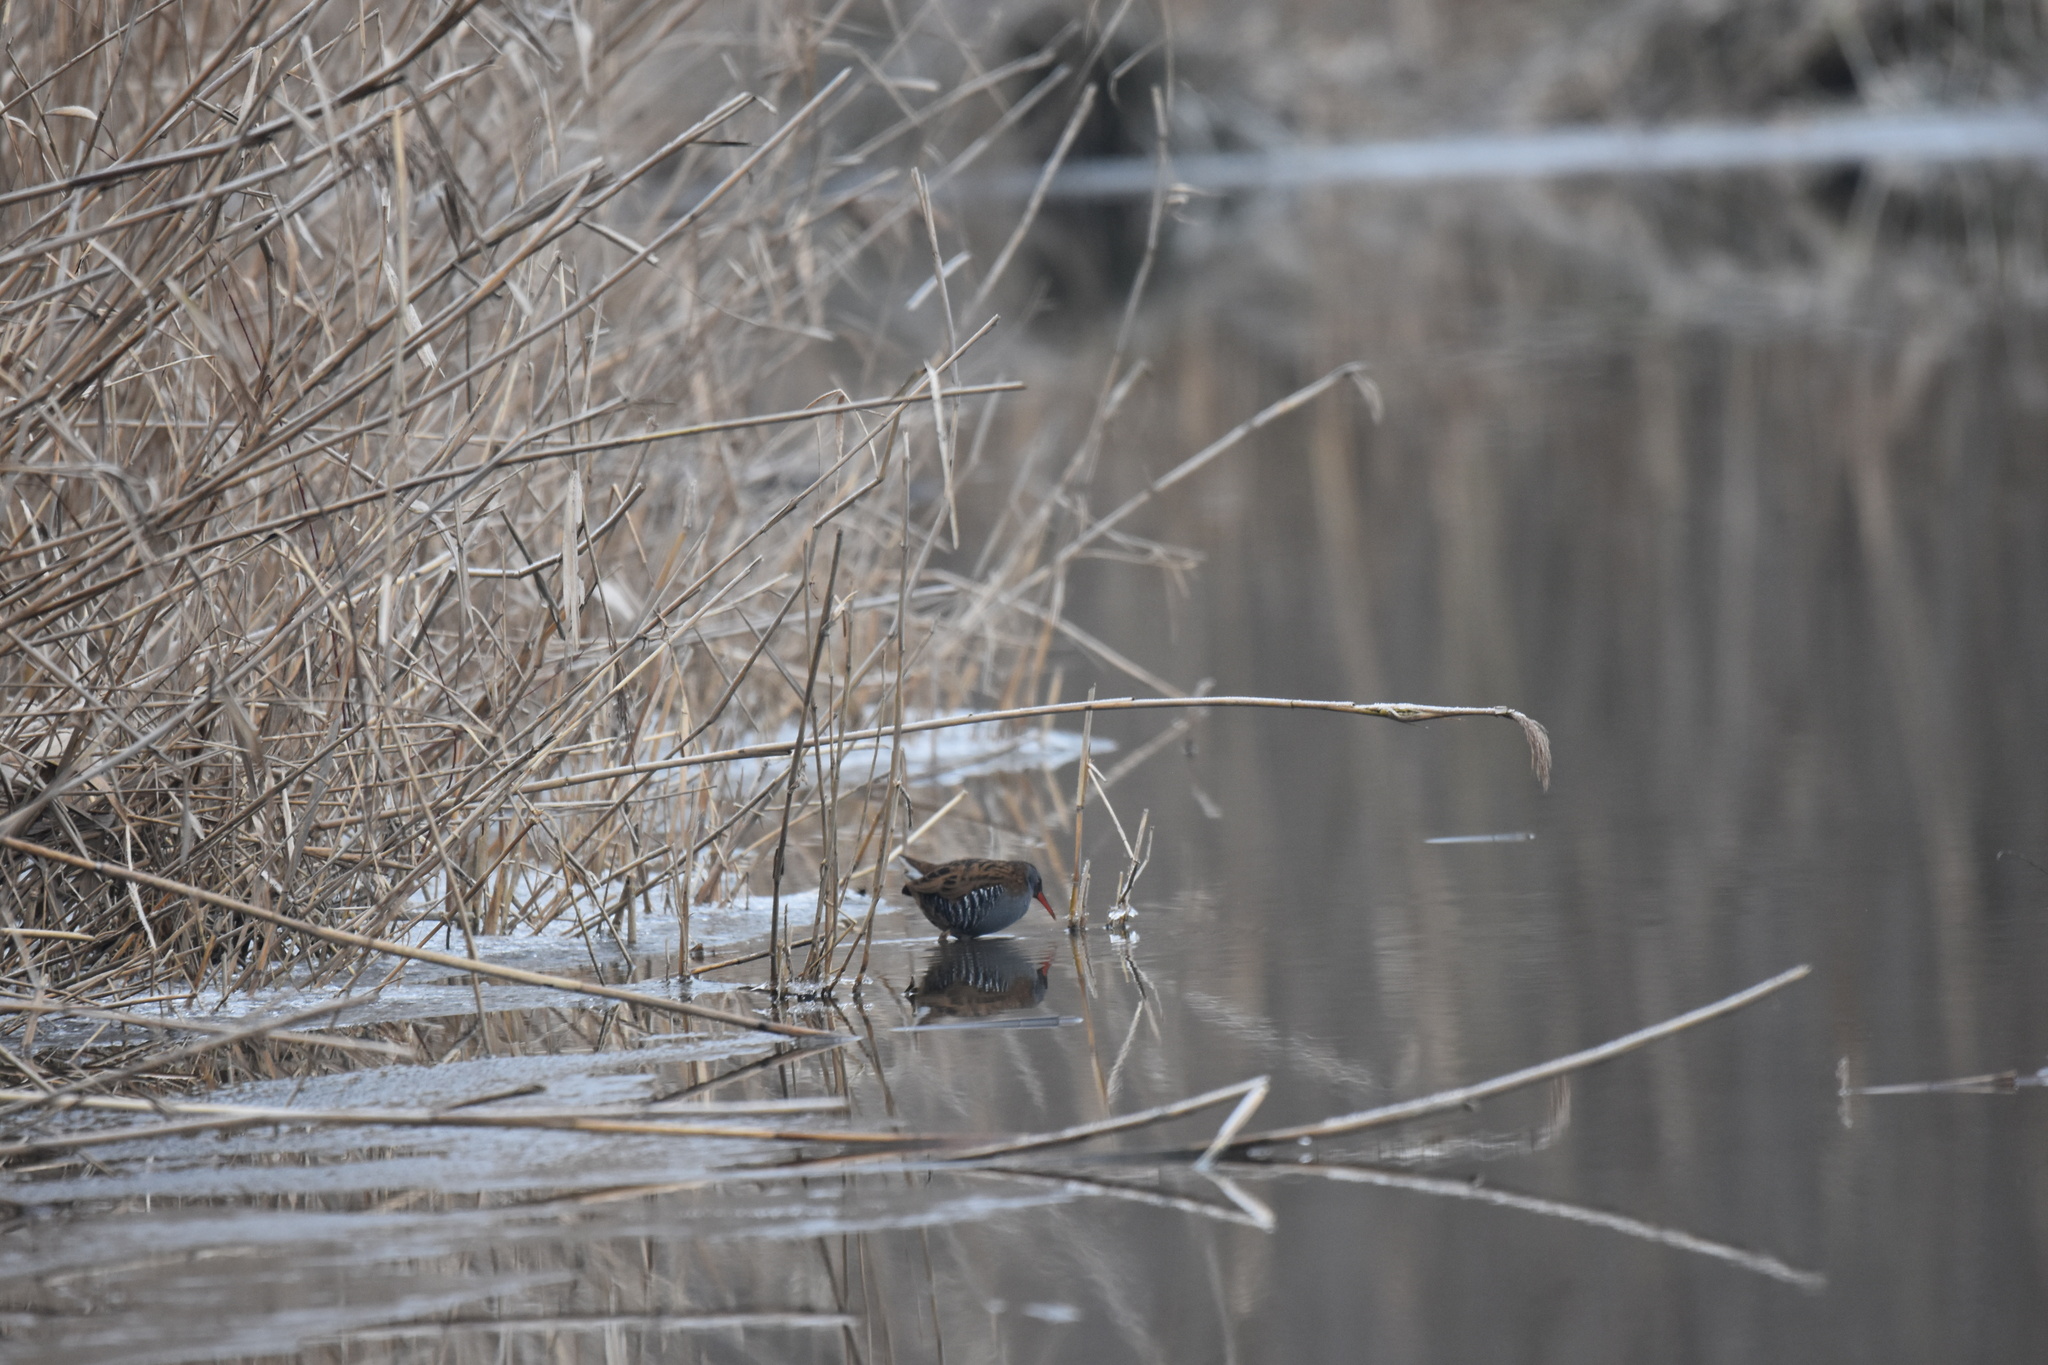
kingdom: Animalia
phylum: Chordata
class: Aves
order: Gruiformes
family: Rallidae
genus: Rallus
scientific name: Rallus aquaticus
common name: Water rail
